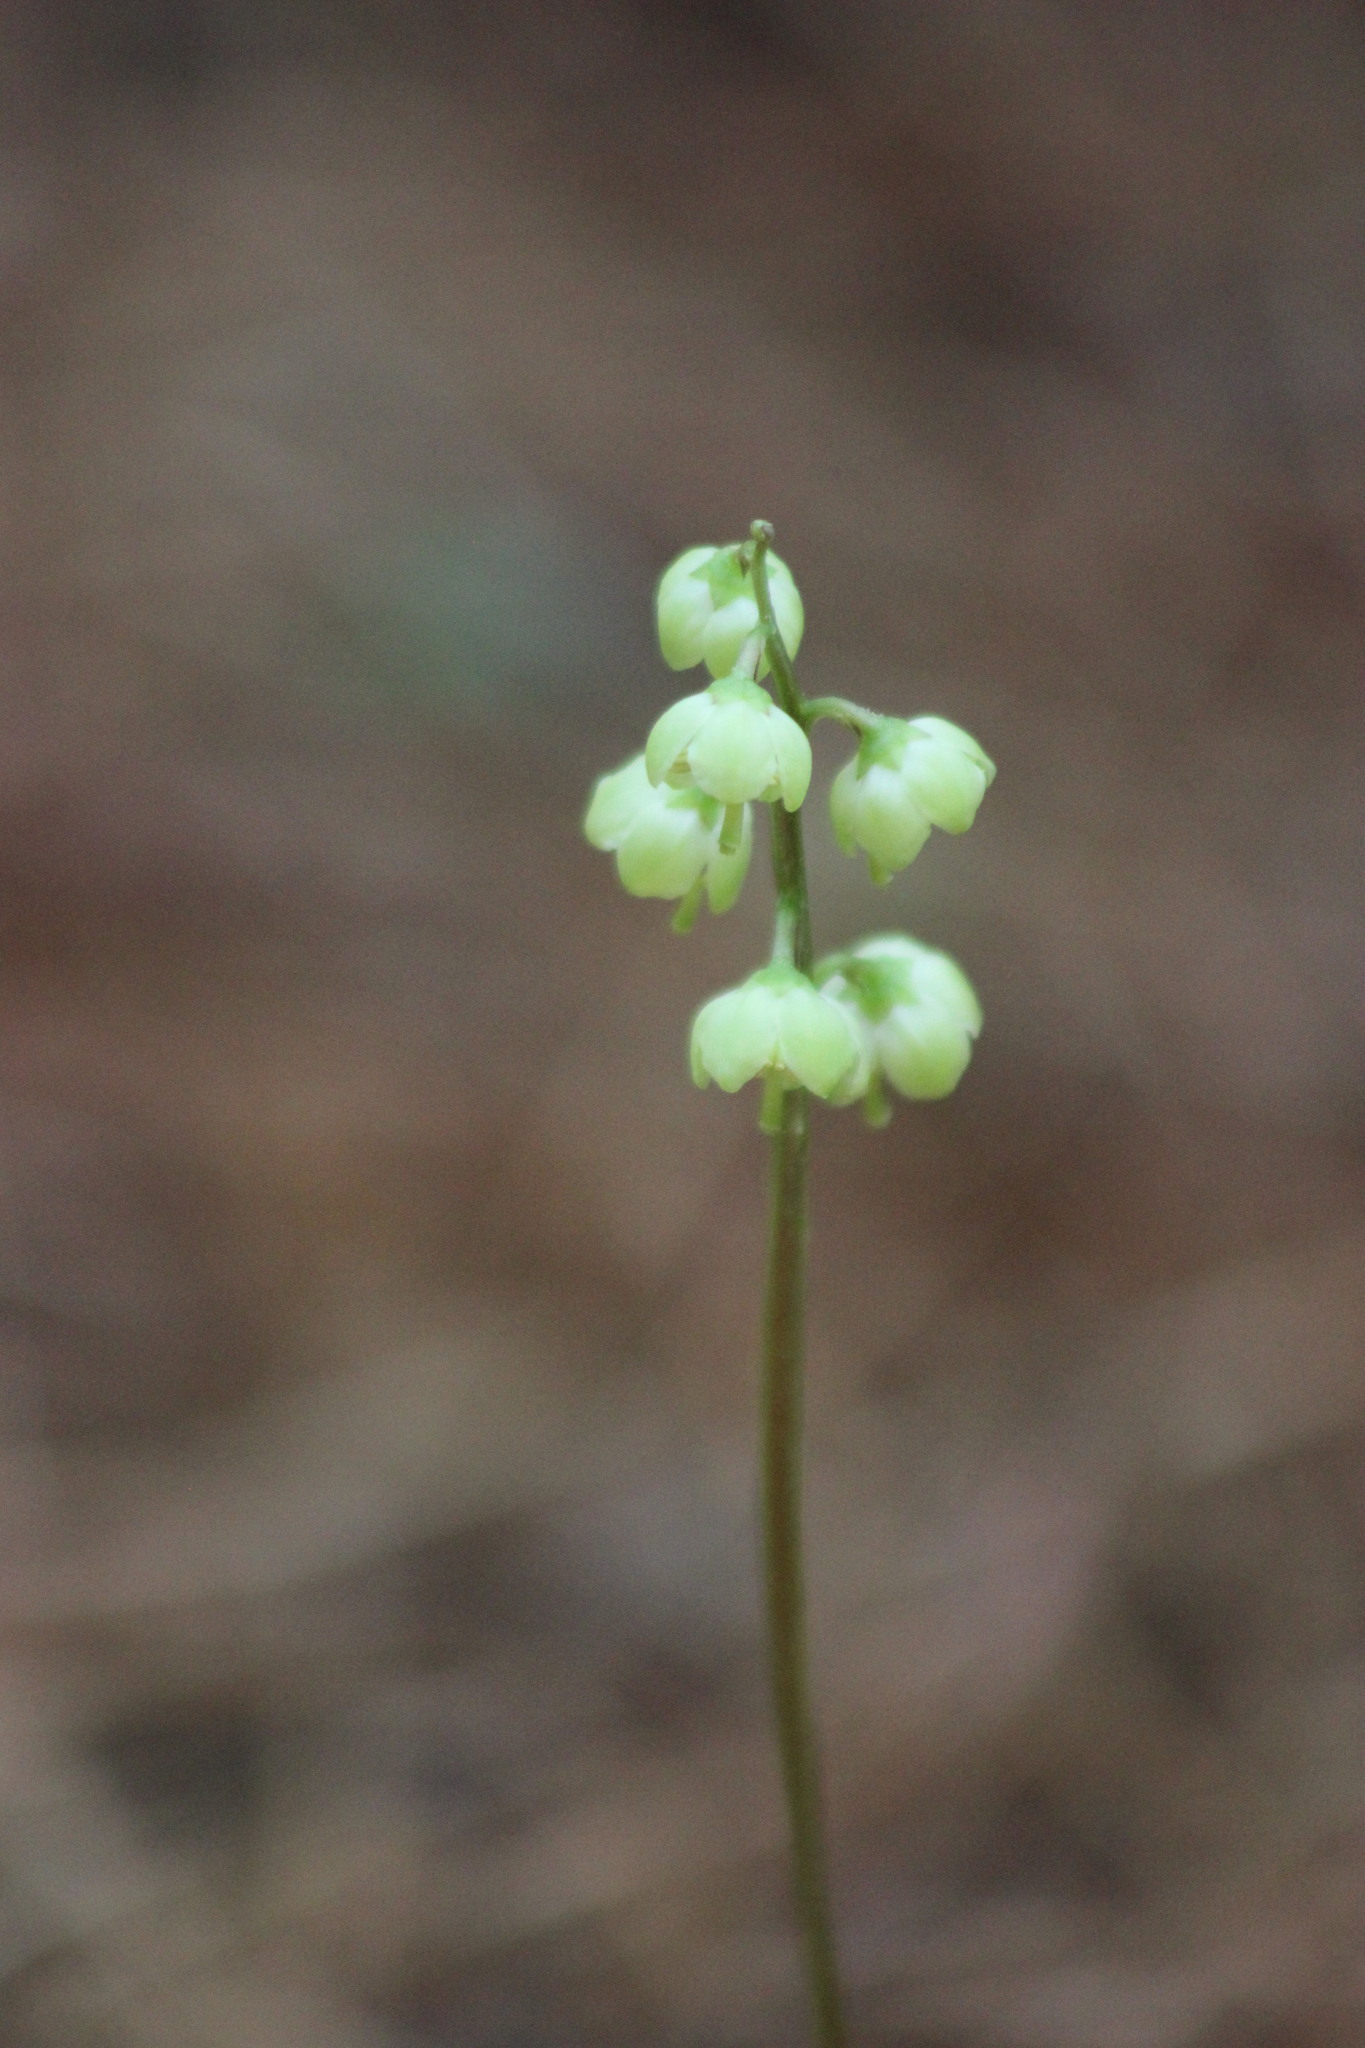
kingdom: Plantae
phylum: Tracheophyta
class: Magnoliopsida
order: Ericales
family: Ericaceae
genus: Pyrola
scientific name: Pyrola chlorantha
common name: Green wintergreen
